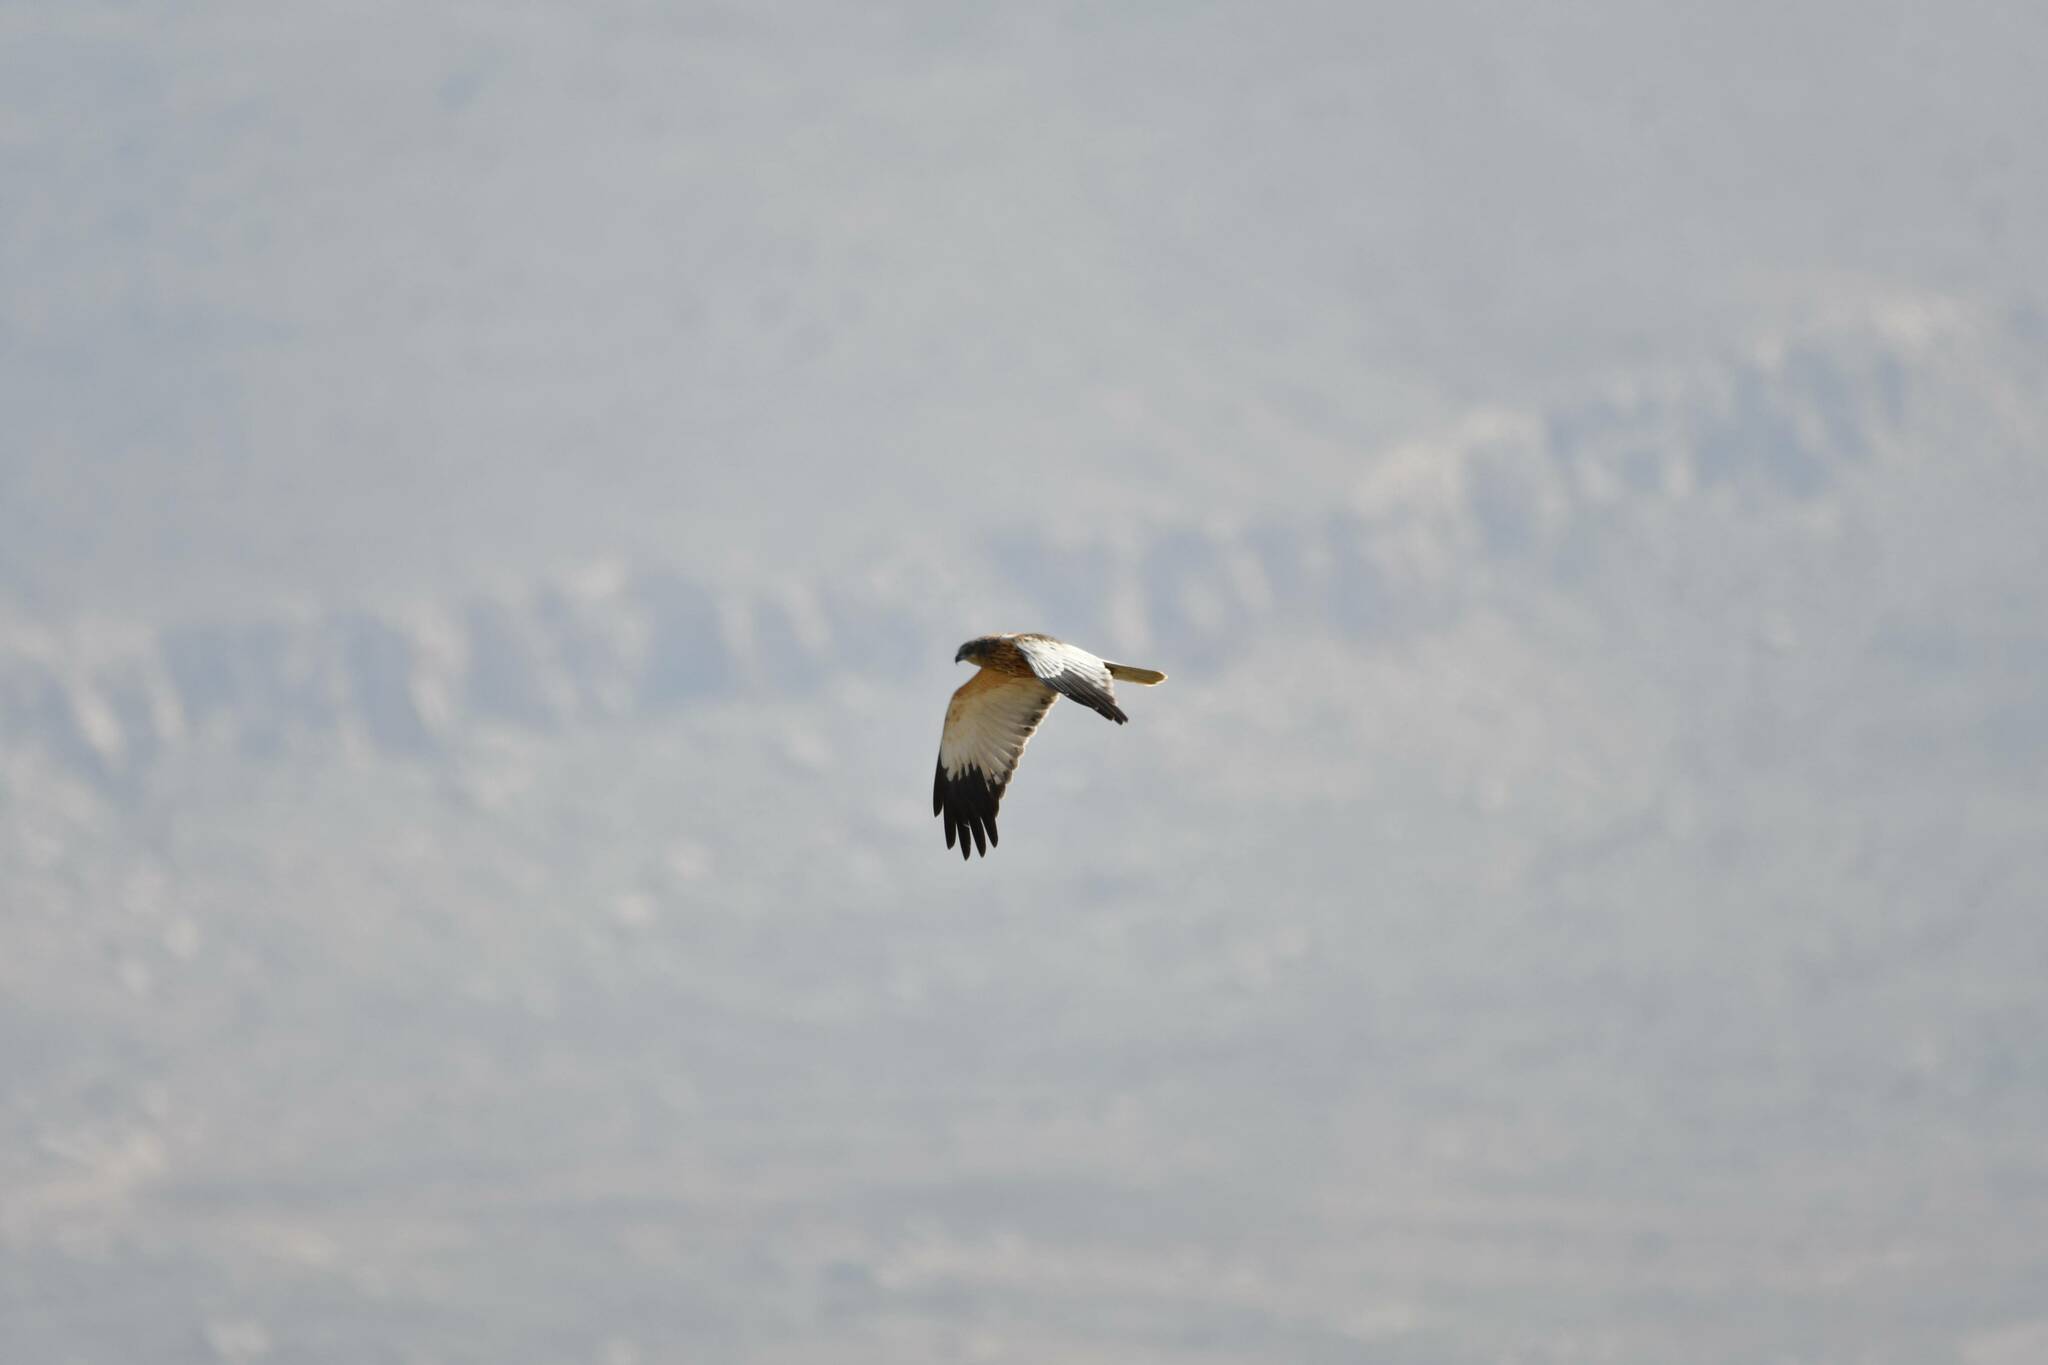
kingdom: Animalia
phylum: Chordata
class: Aves
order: Accipitriformes
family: Accipitridae
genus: Circus
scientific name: Circus aeruginosus
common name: Western marsh harrier
